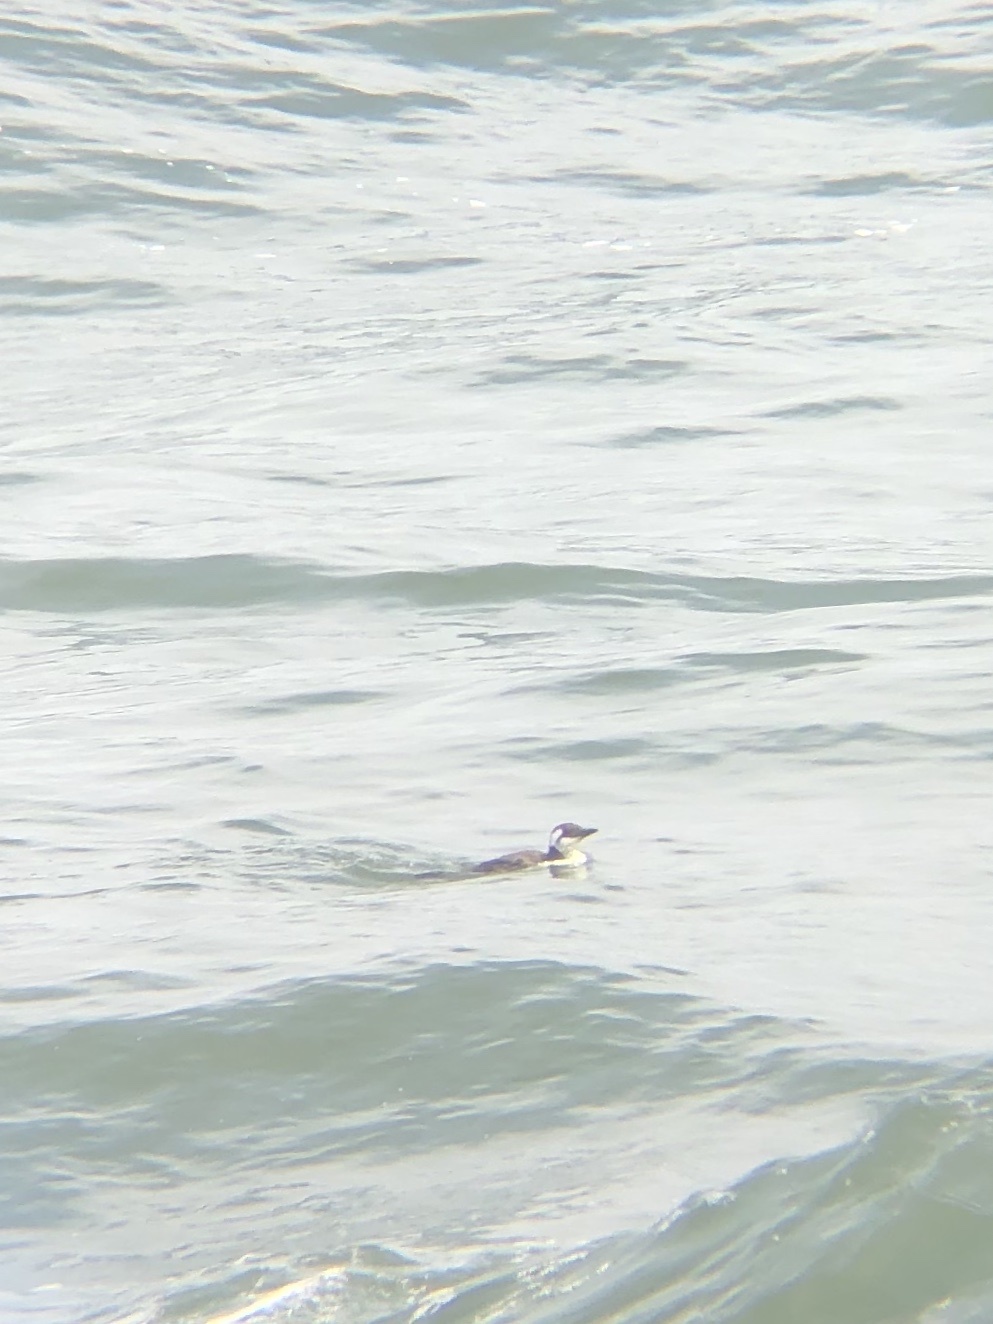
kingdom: Animalia
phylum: Chordata
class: Aves
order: Charadriiformes
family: Alcidae
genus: Uria
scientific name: Uria aalge
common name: Common murre
